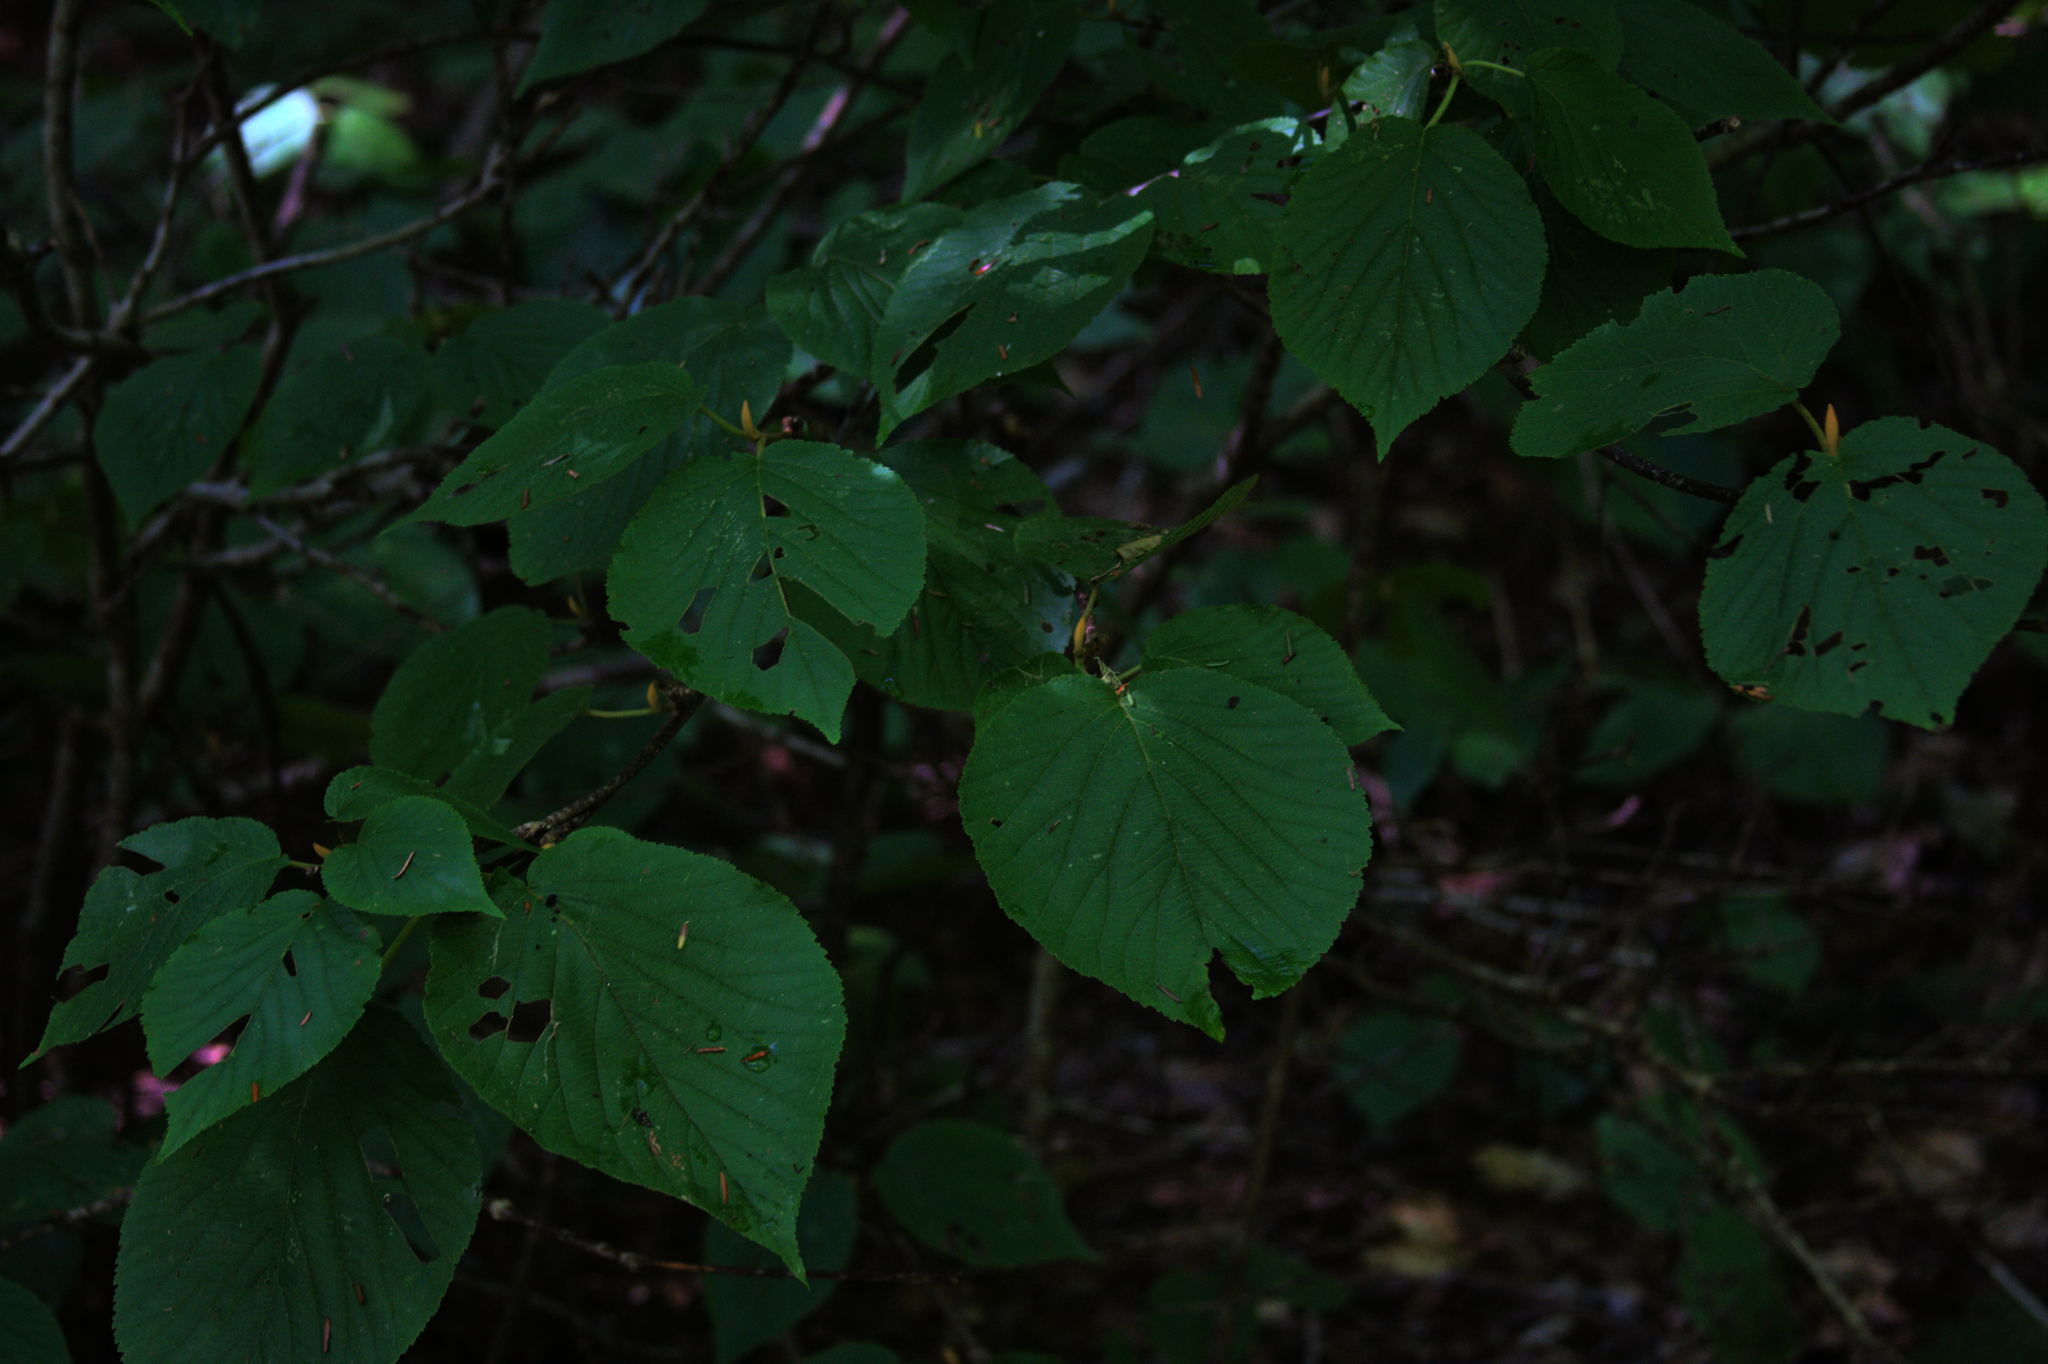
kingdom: Plantae
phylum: Tracheophyta
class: Magnoliopsida
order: Dipsacales
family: Viburnaceae
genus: Viburnum
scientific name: Viburnum lantanoides
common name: Hobblebush
